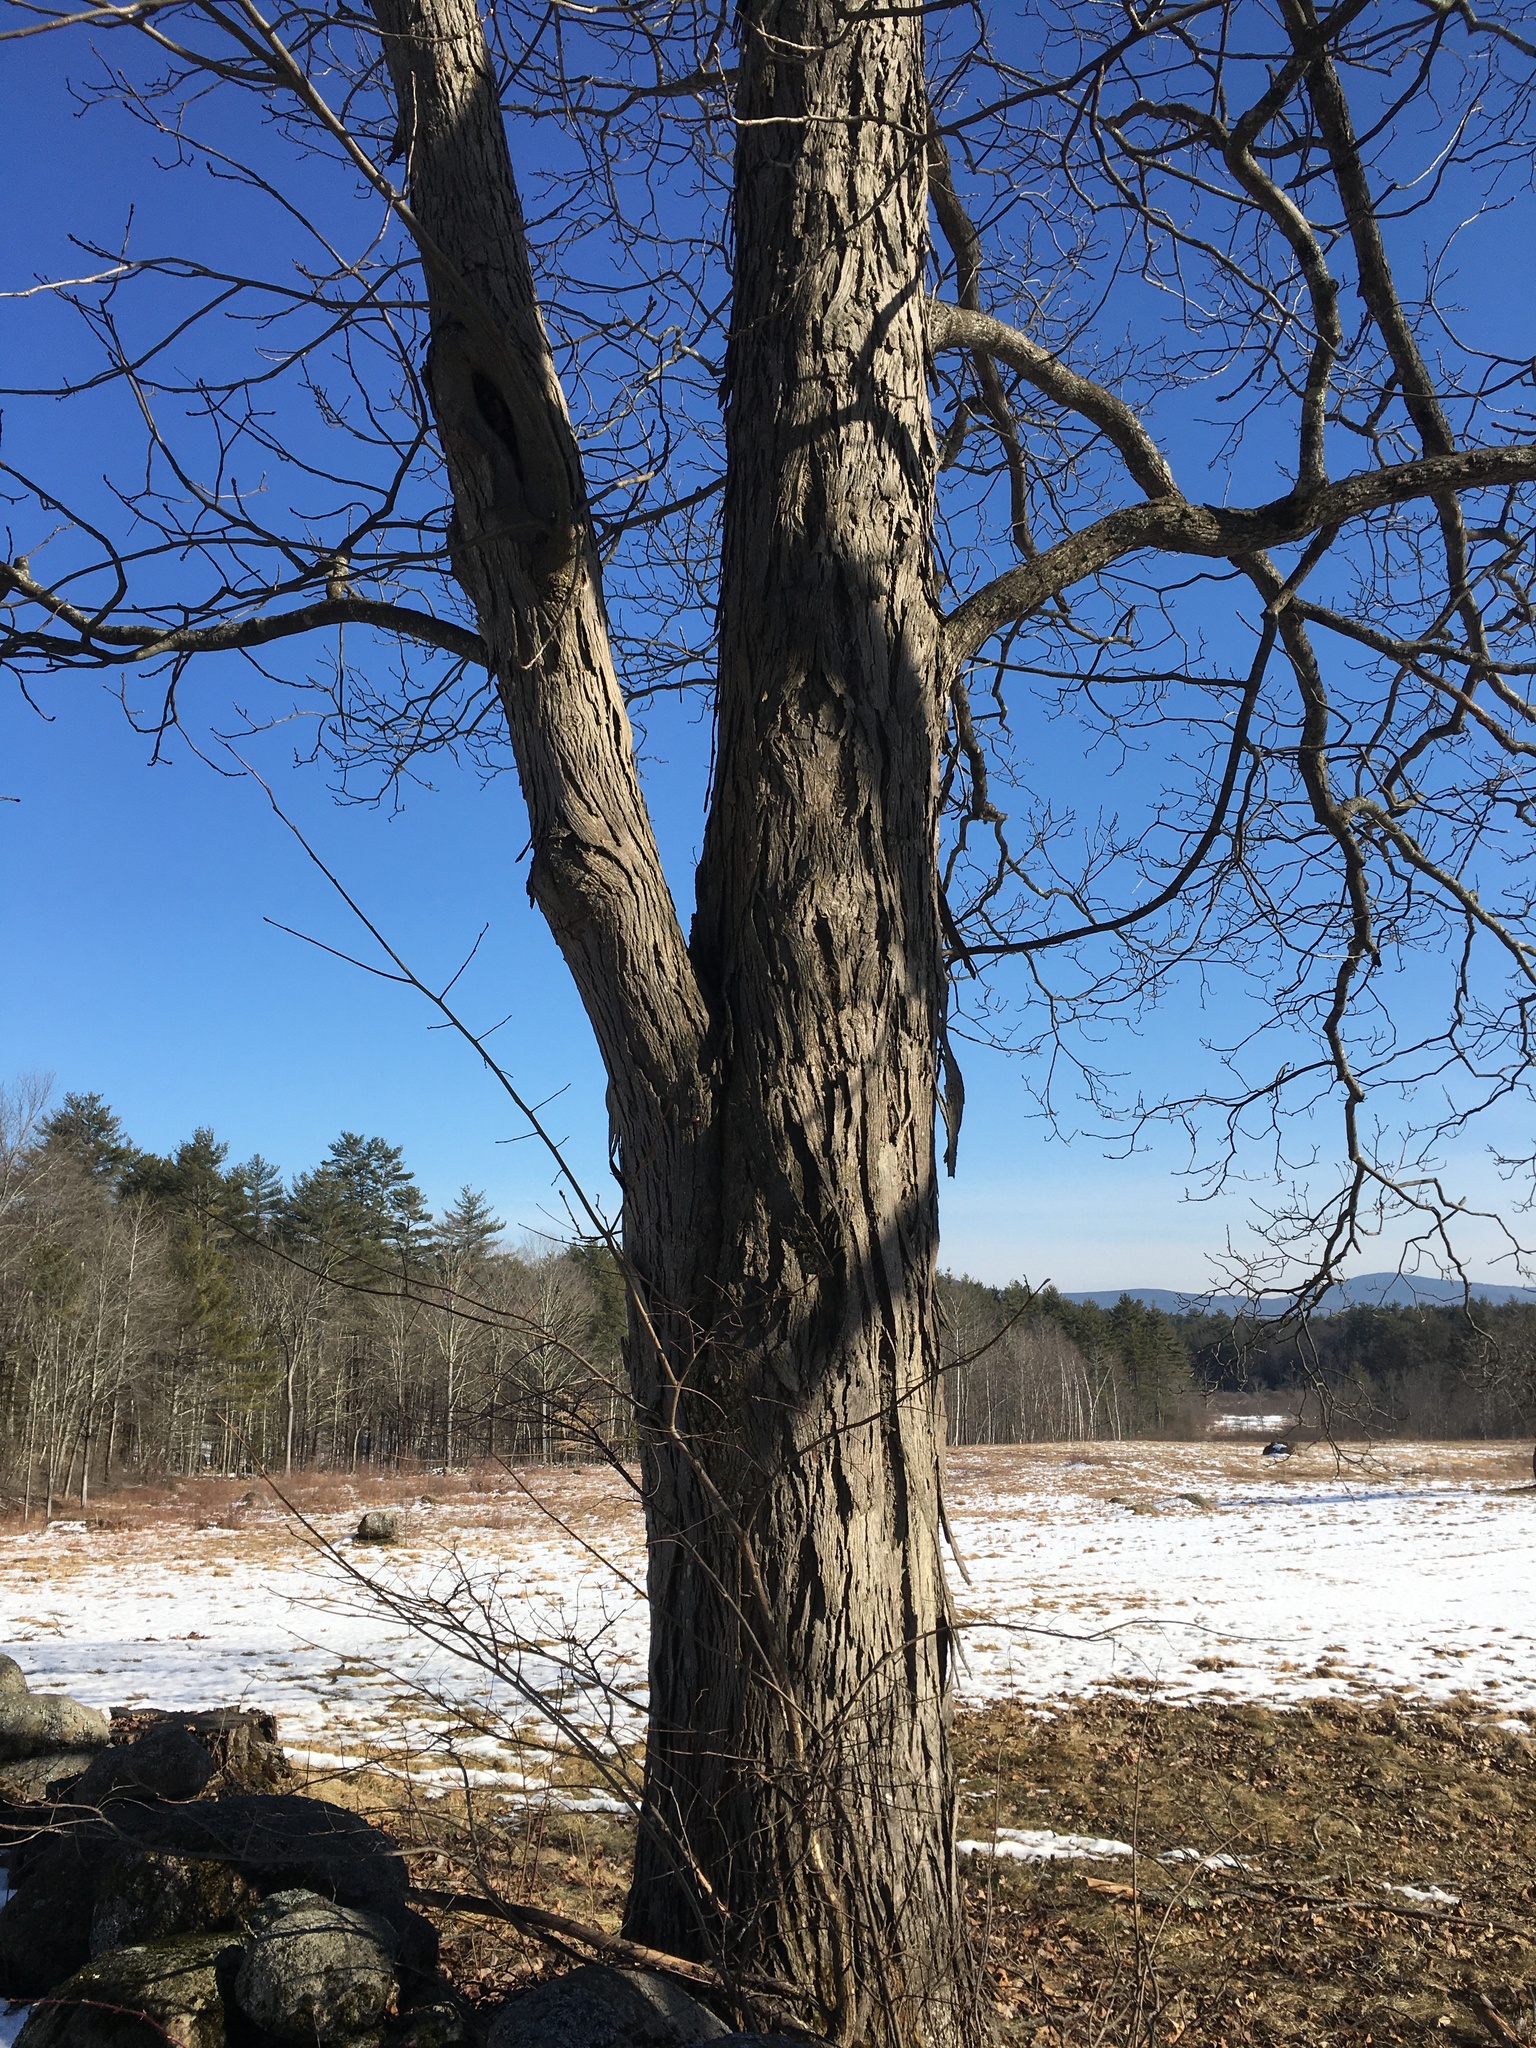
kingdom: Plantae
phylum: Tracheophyta
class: Magnoliopsida
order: Fagales
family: Juglandaceae
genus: Carya
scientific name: Carya ovata
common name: Shagbark hickory
